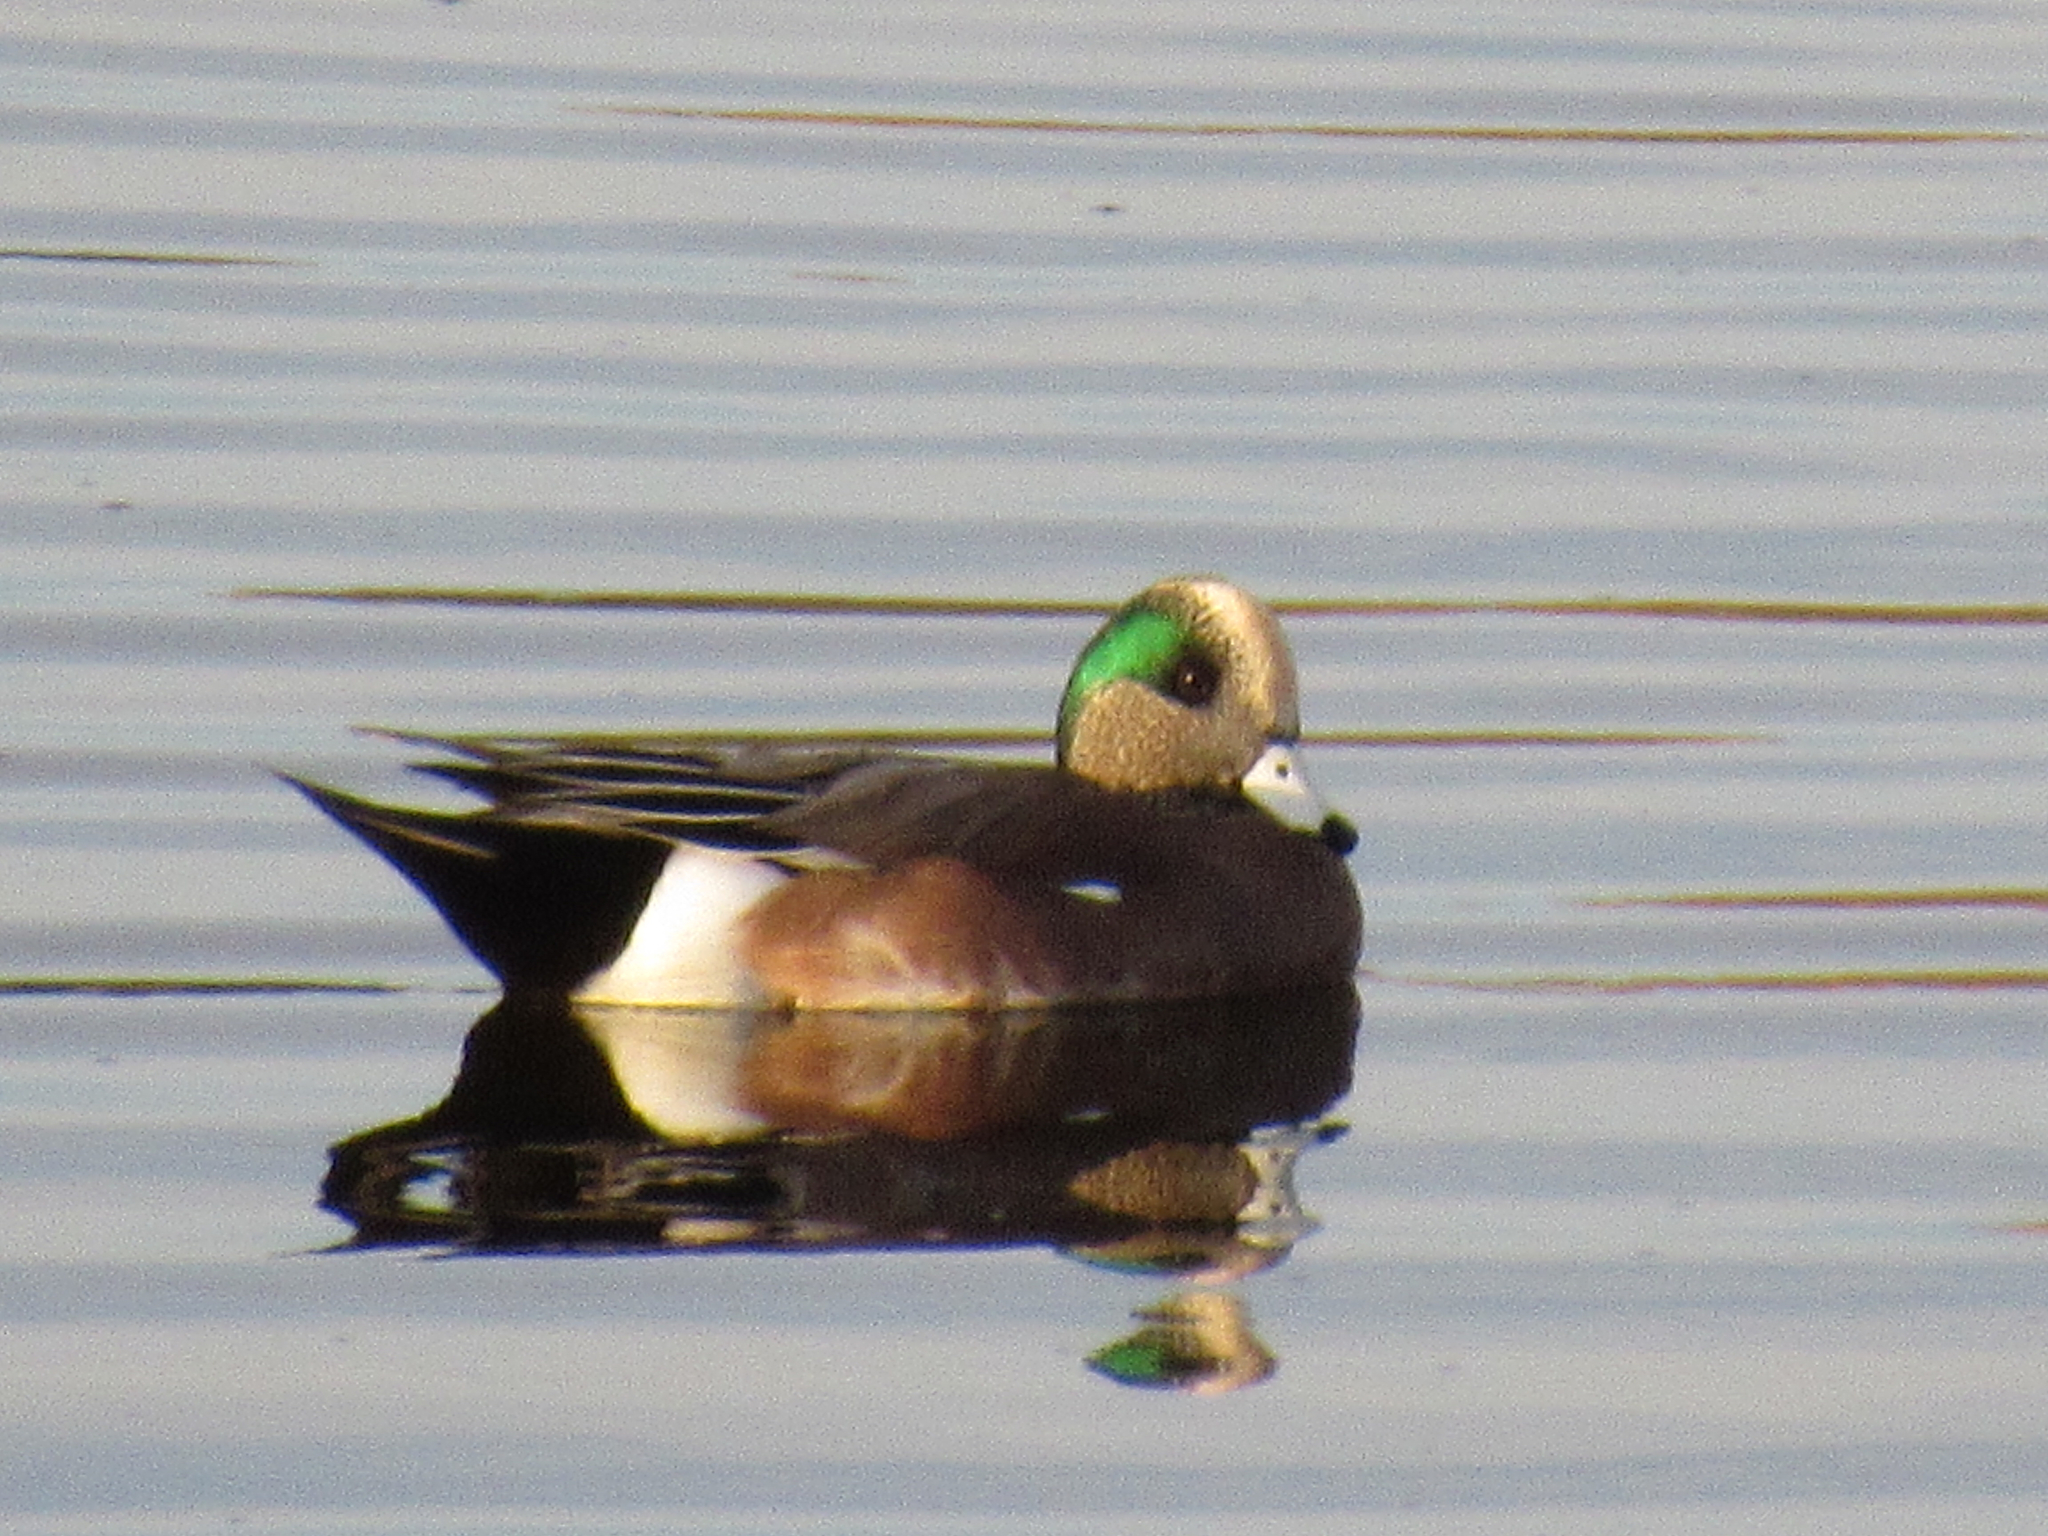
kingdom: Animalia
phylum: Chordata
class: Aves
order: Anseriformes
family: Anatidae
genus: Mareca
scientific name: Mareca americana
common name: American wigeon
